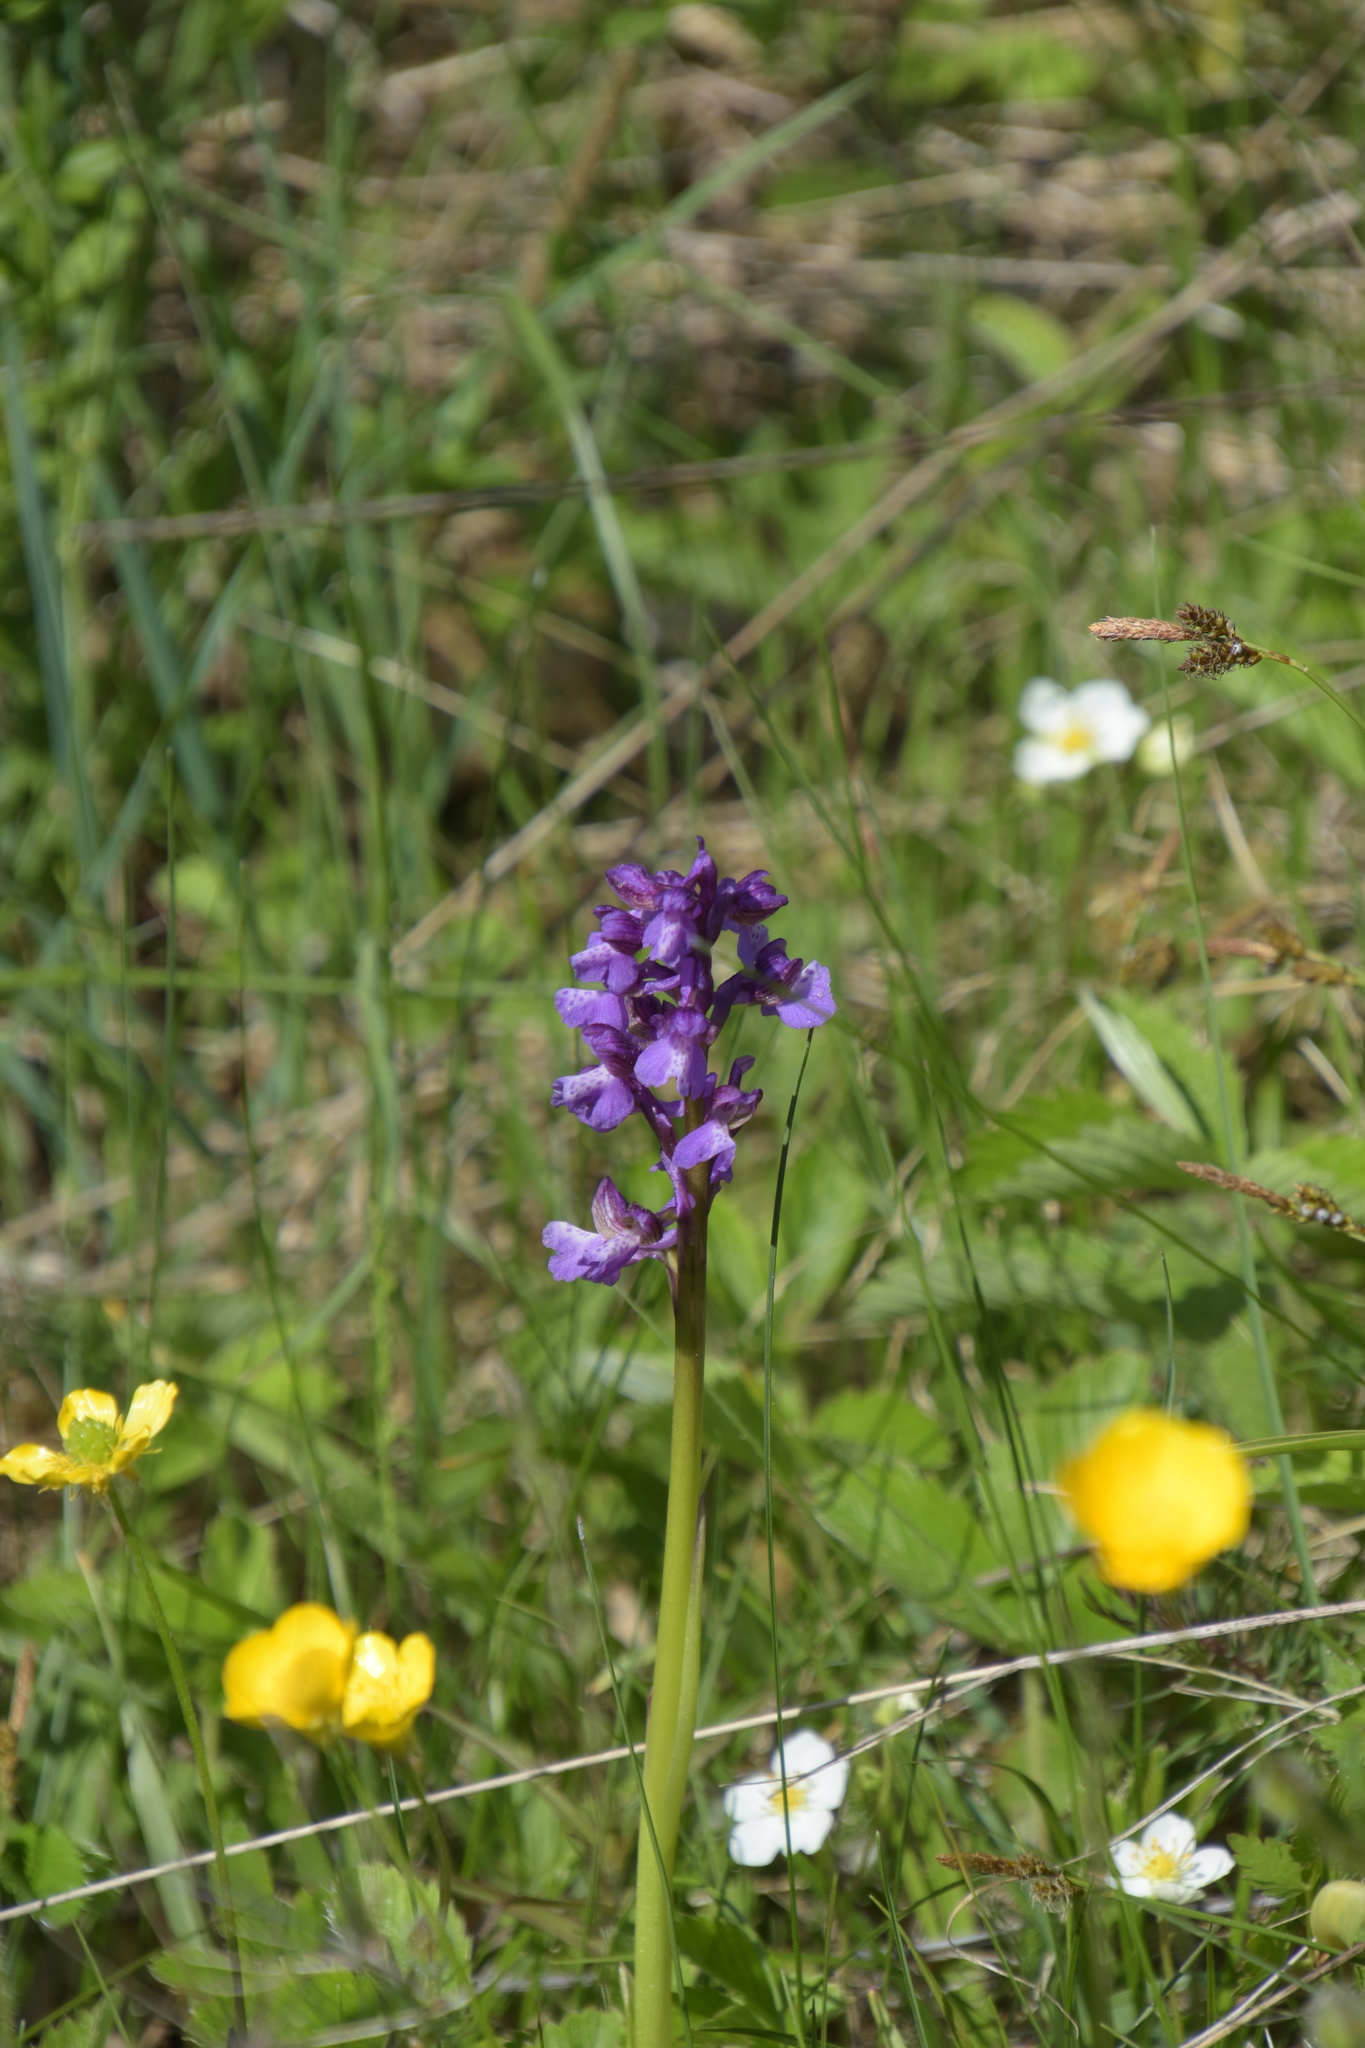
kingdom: Plantae
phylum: Tracheophyta
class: Liliopsida
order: Asparagales
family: Orchidaceae
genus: Anacamptis
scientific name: Anacamptis morio
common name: Green-winged orchid
